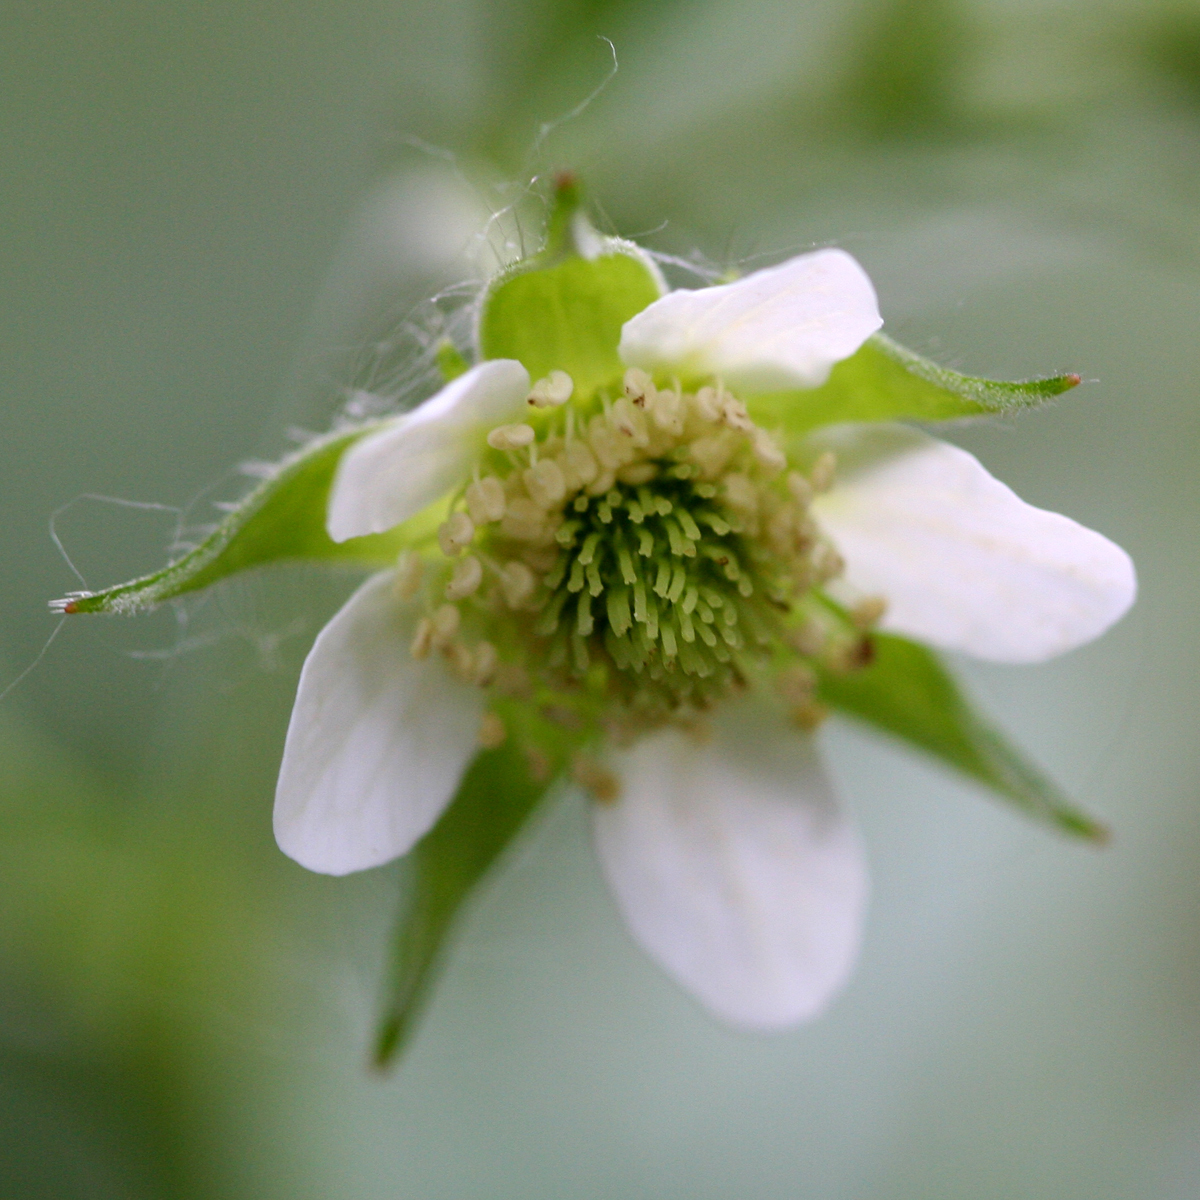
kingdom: Plantae
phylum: Tracheophyta
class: Magnoliopsida
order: Rosales
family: Rosaceae
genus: Geum
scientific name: Geum canadense
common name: White avens
